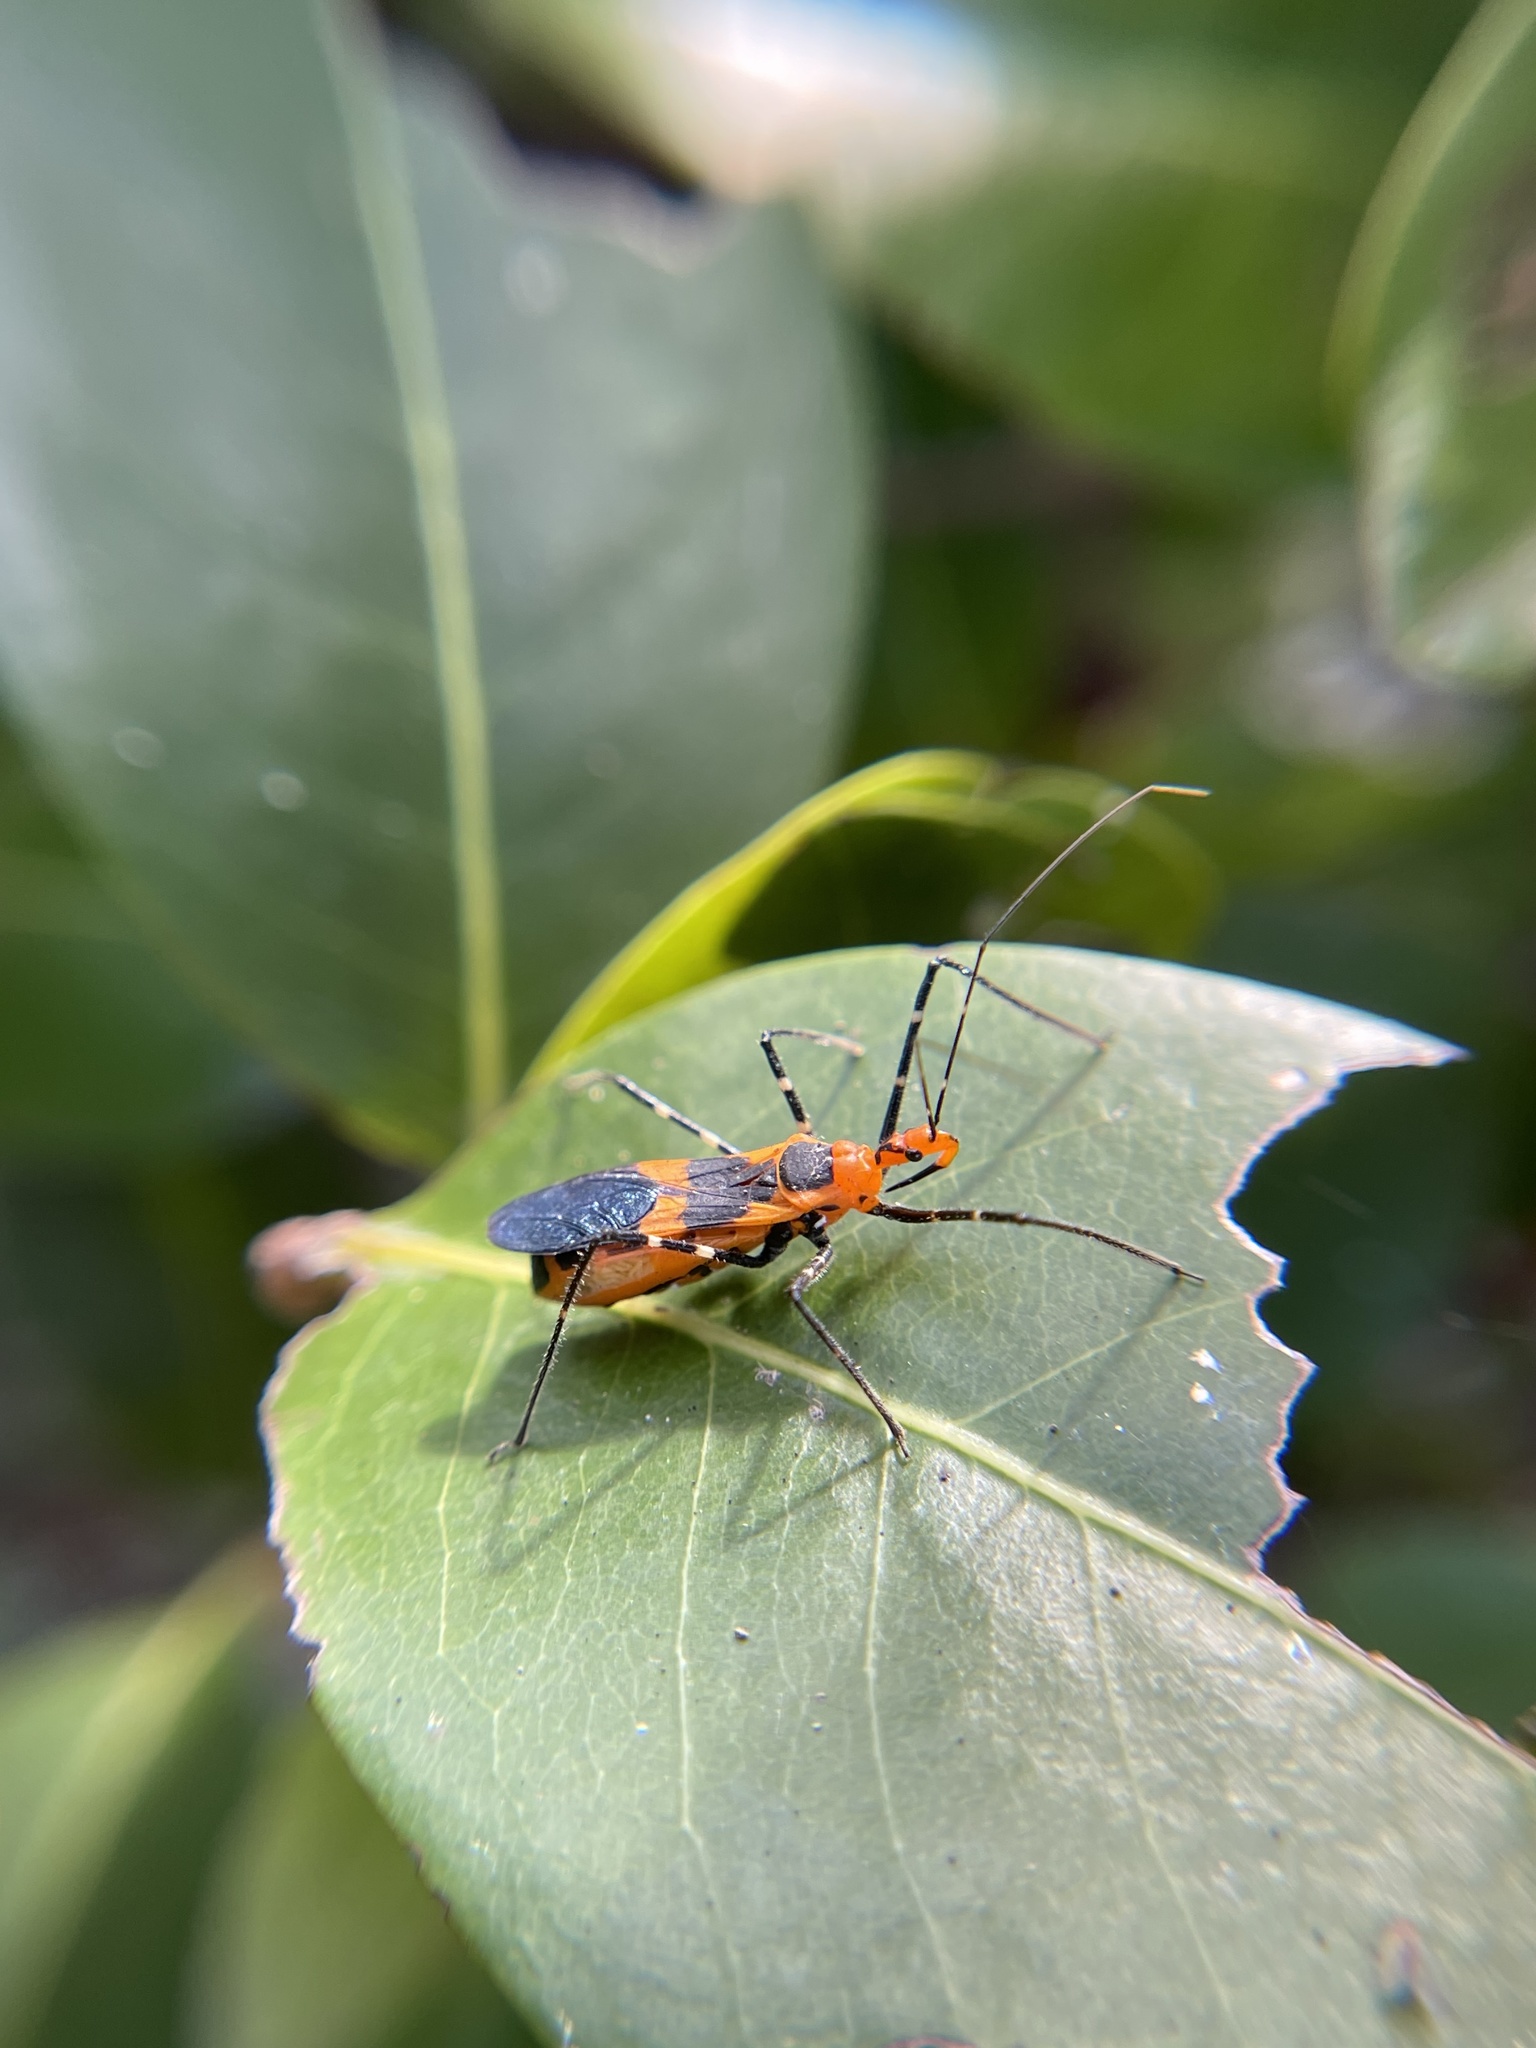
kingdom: Animalia
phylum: Arthropoda
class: Insecta
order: Hemiptera
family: Reduviidae
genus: Zelus
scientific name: Zelus longipes
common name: Milkweed assassin bug
